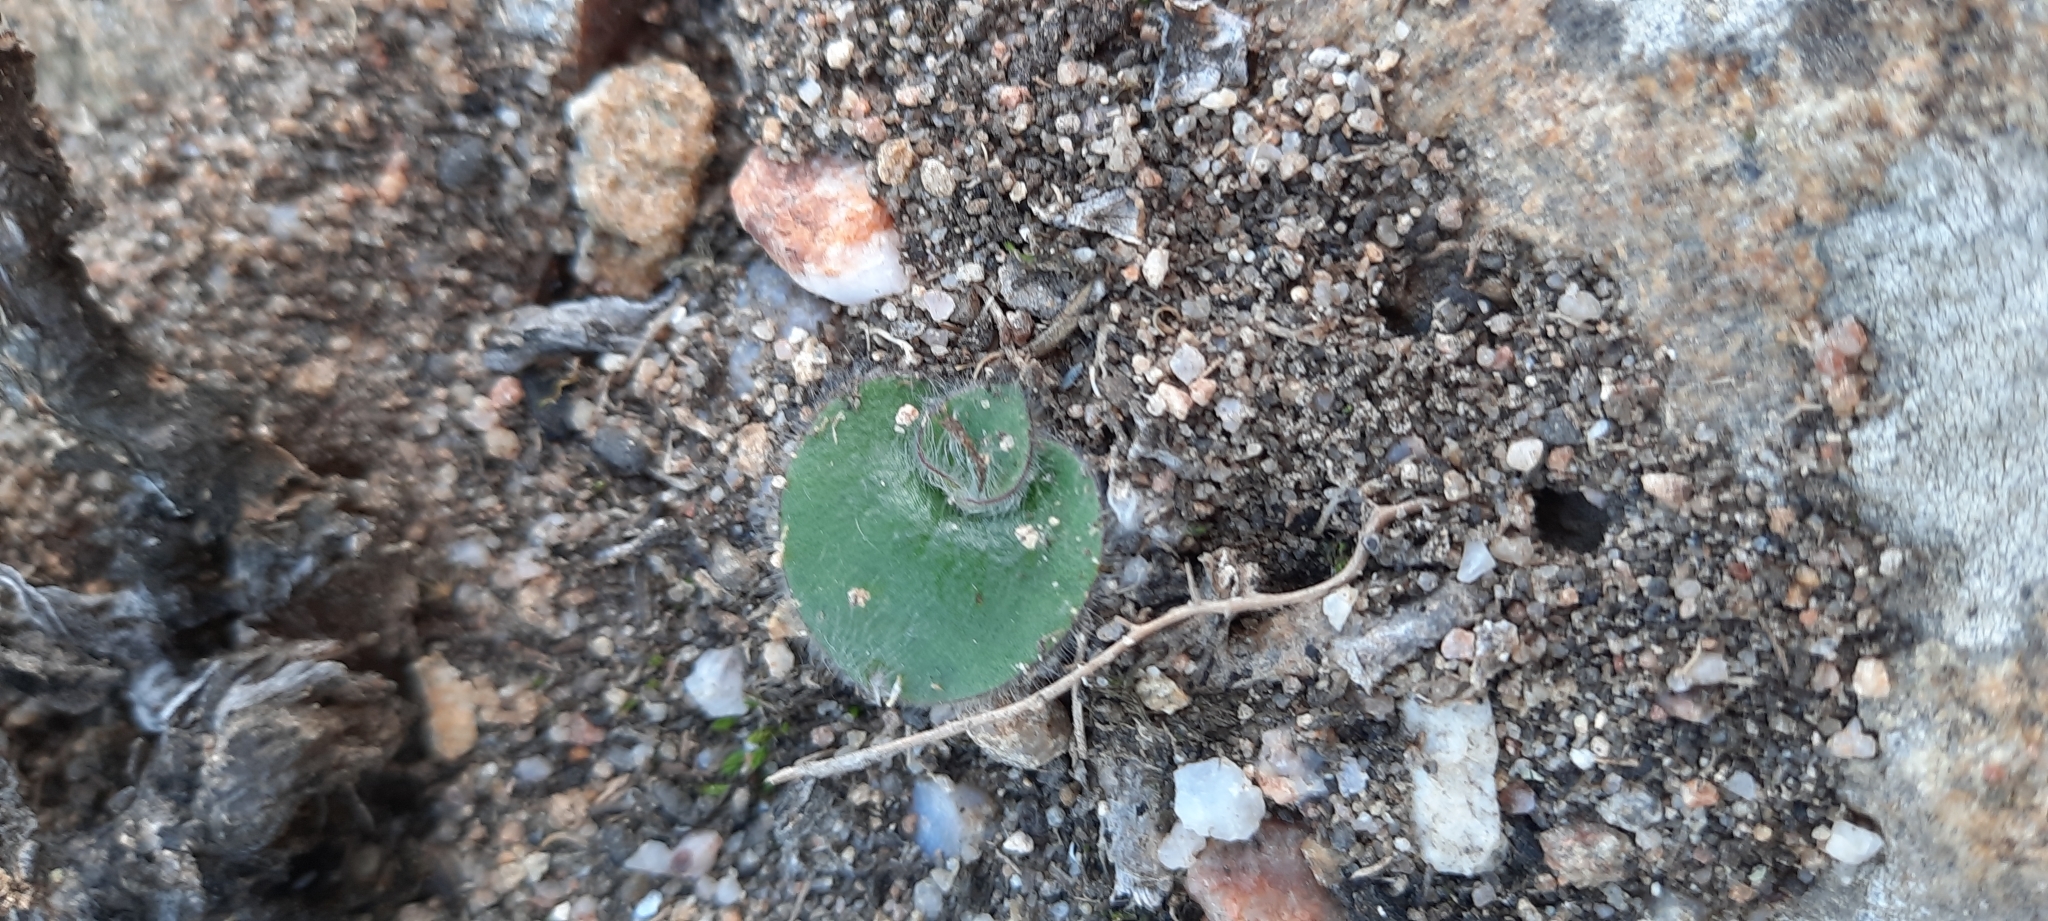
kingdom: Plantae
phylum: Tracheophyta
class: Liliopsida
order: Asparagales
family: Orchidaceae
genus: Holothrix
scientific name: Holothrix villosa
